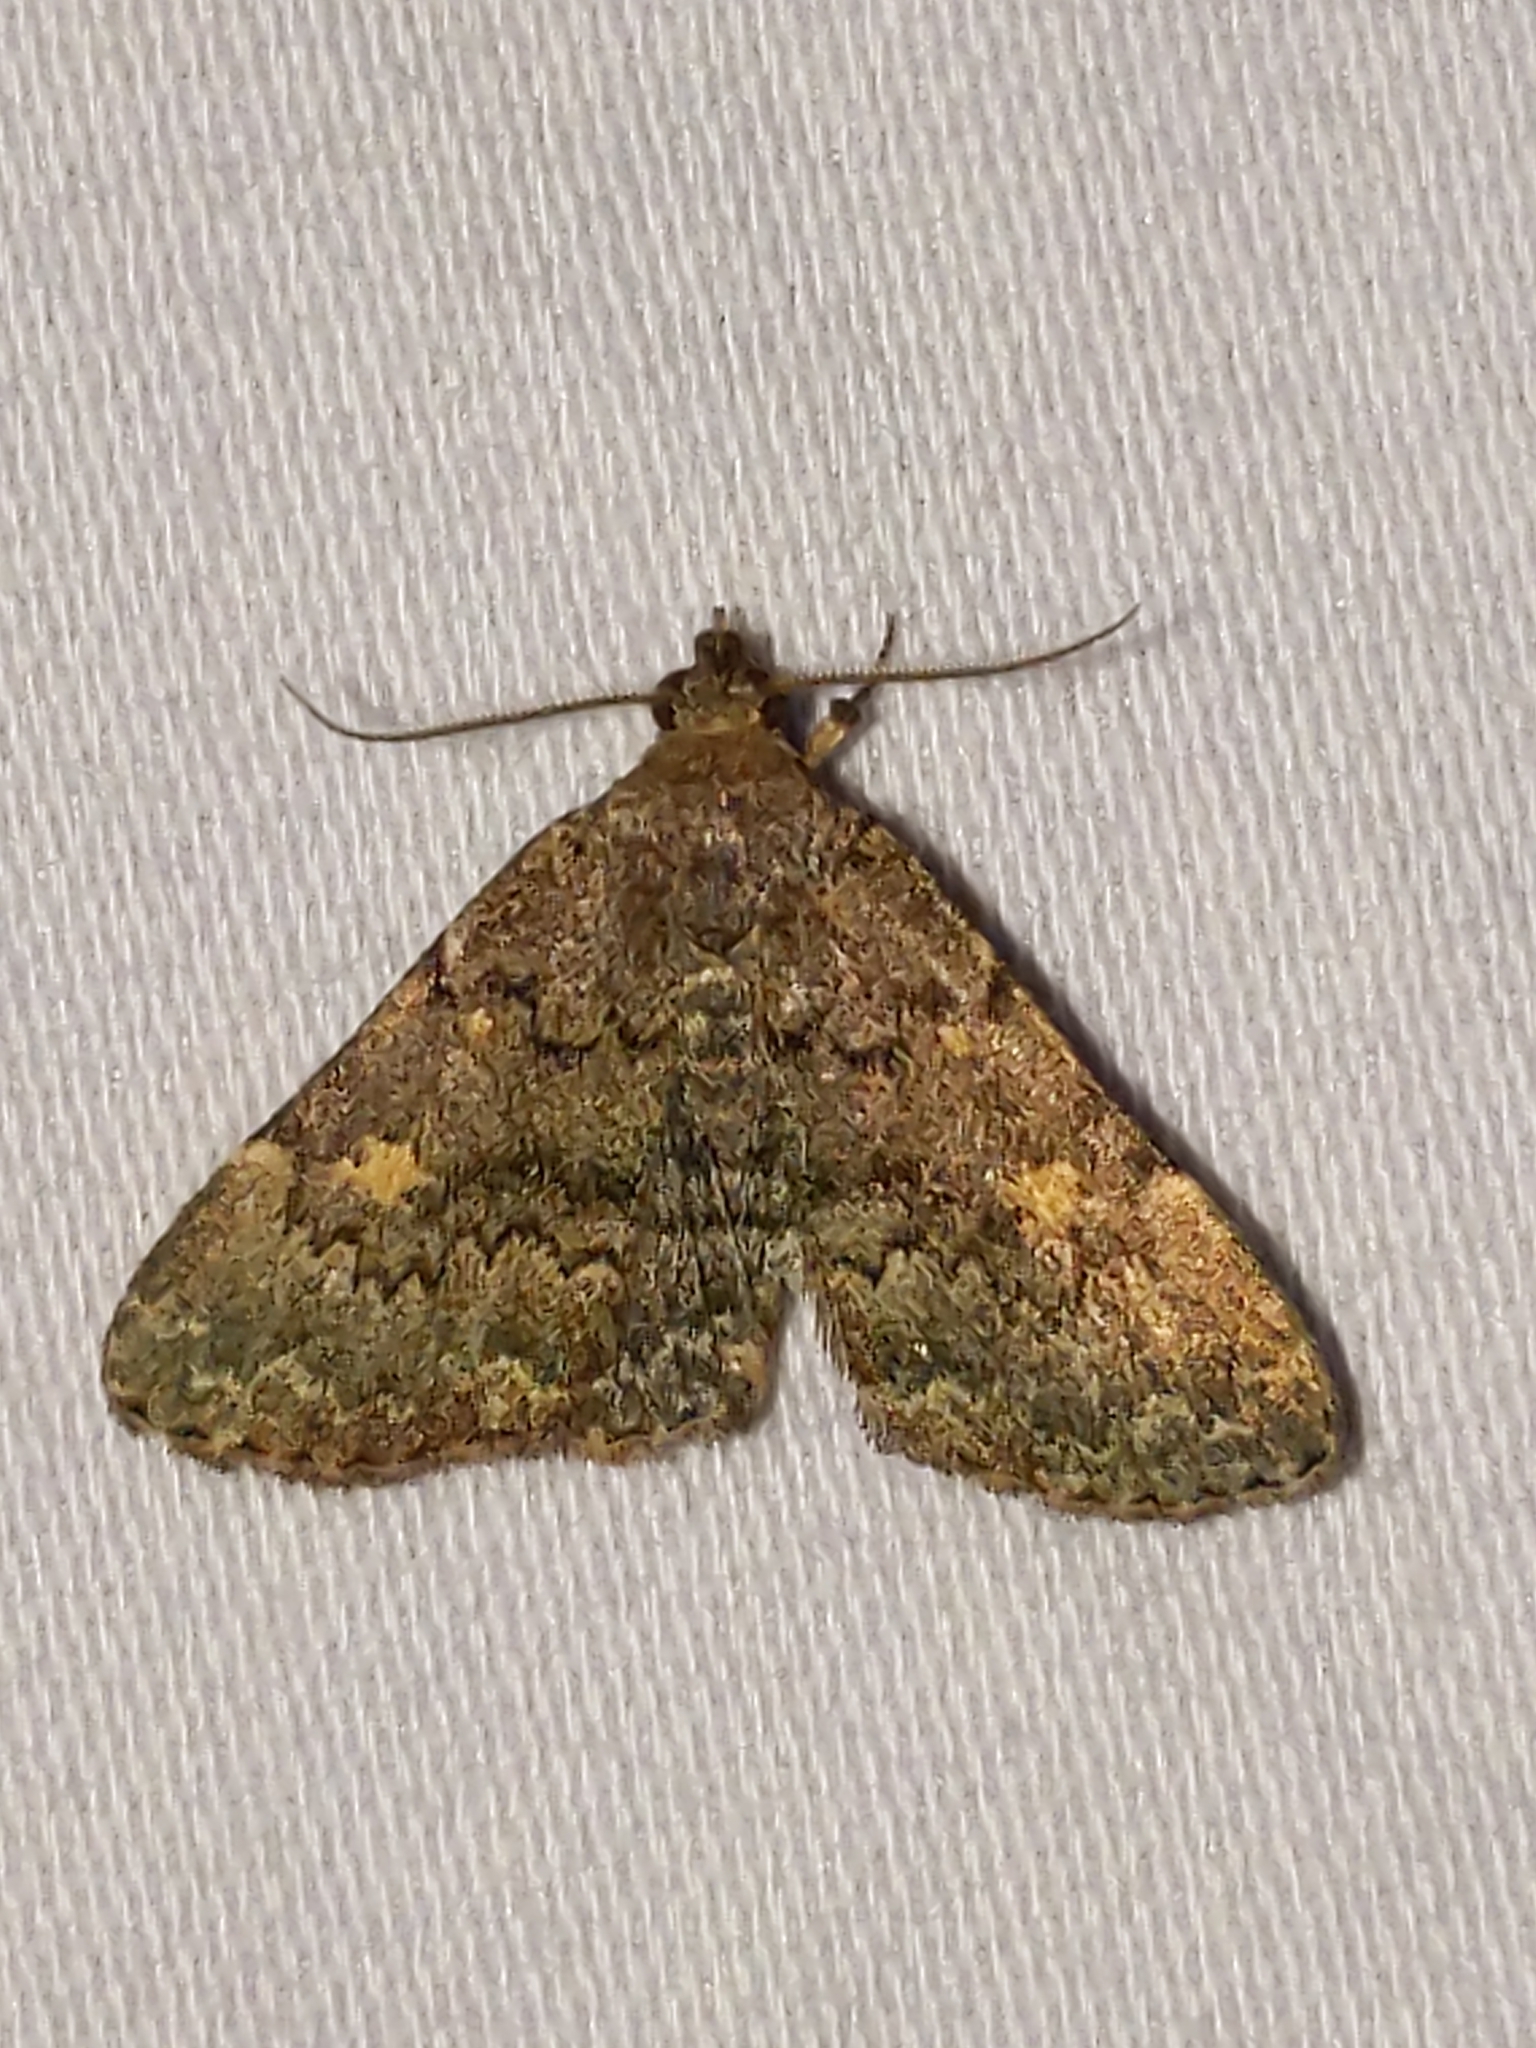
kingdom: Animalia
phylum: Arthropoda
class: Insecta
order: Lepidoptera
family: Erebidae
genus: Idia
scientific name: Idia aemula
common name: Common idia moth
